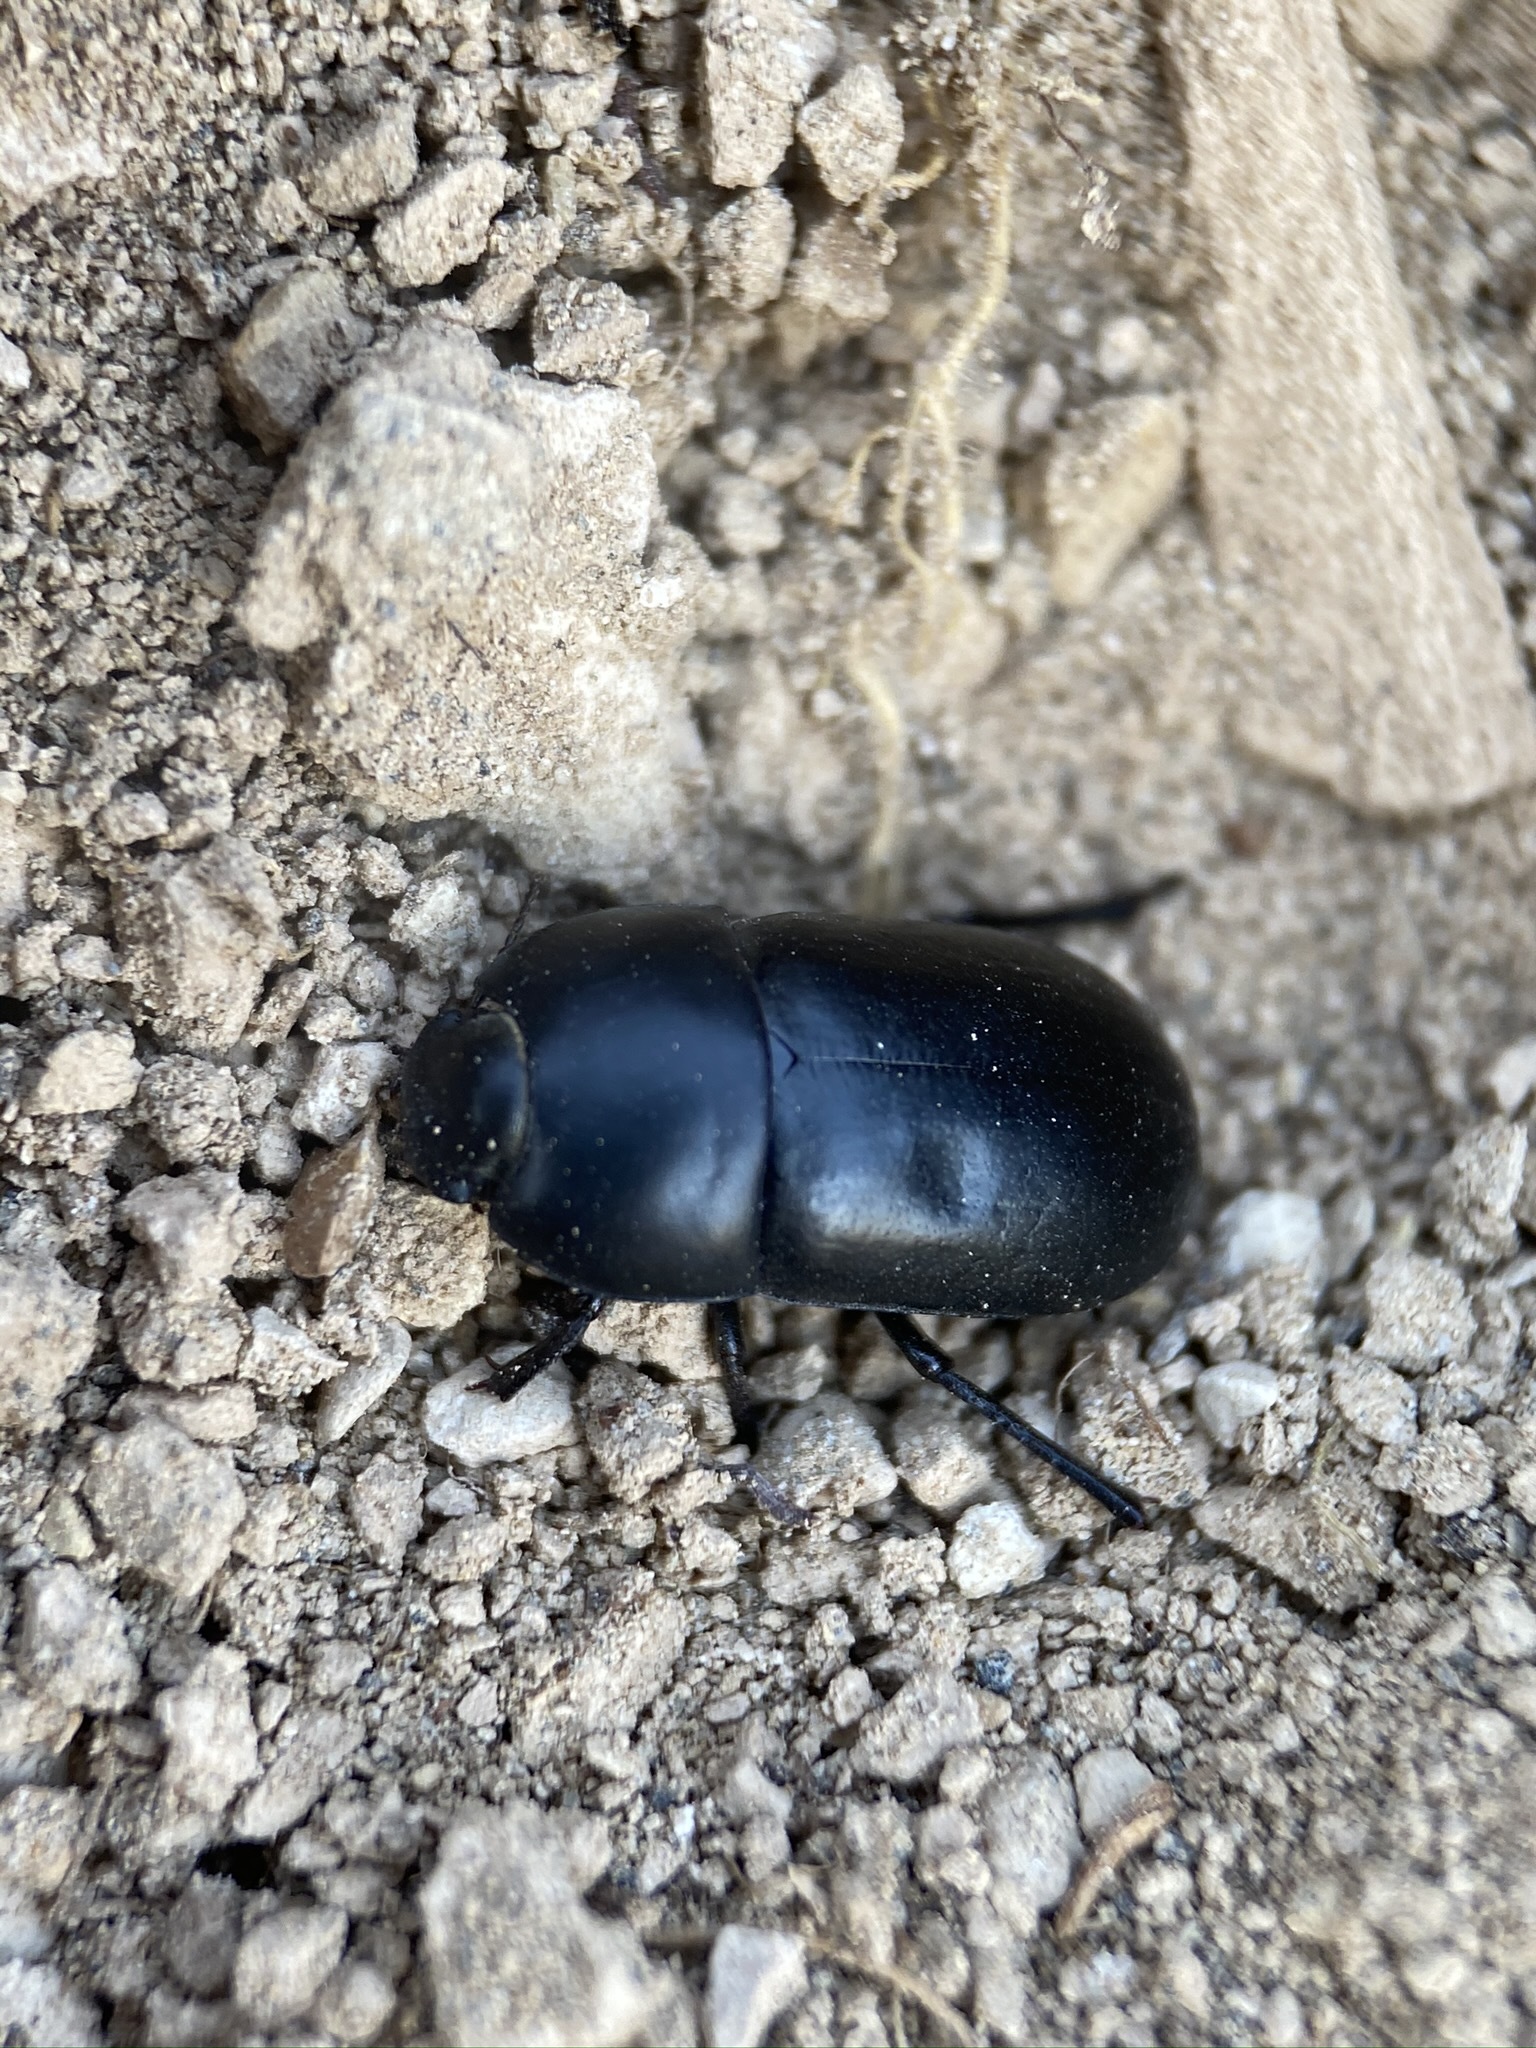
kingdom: Animalia
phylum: Arthropoda
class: Insecta
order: Coleoptera
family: Tenebrionidae
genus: Coniontis
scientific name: Coniontis
